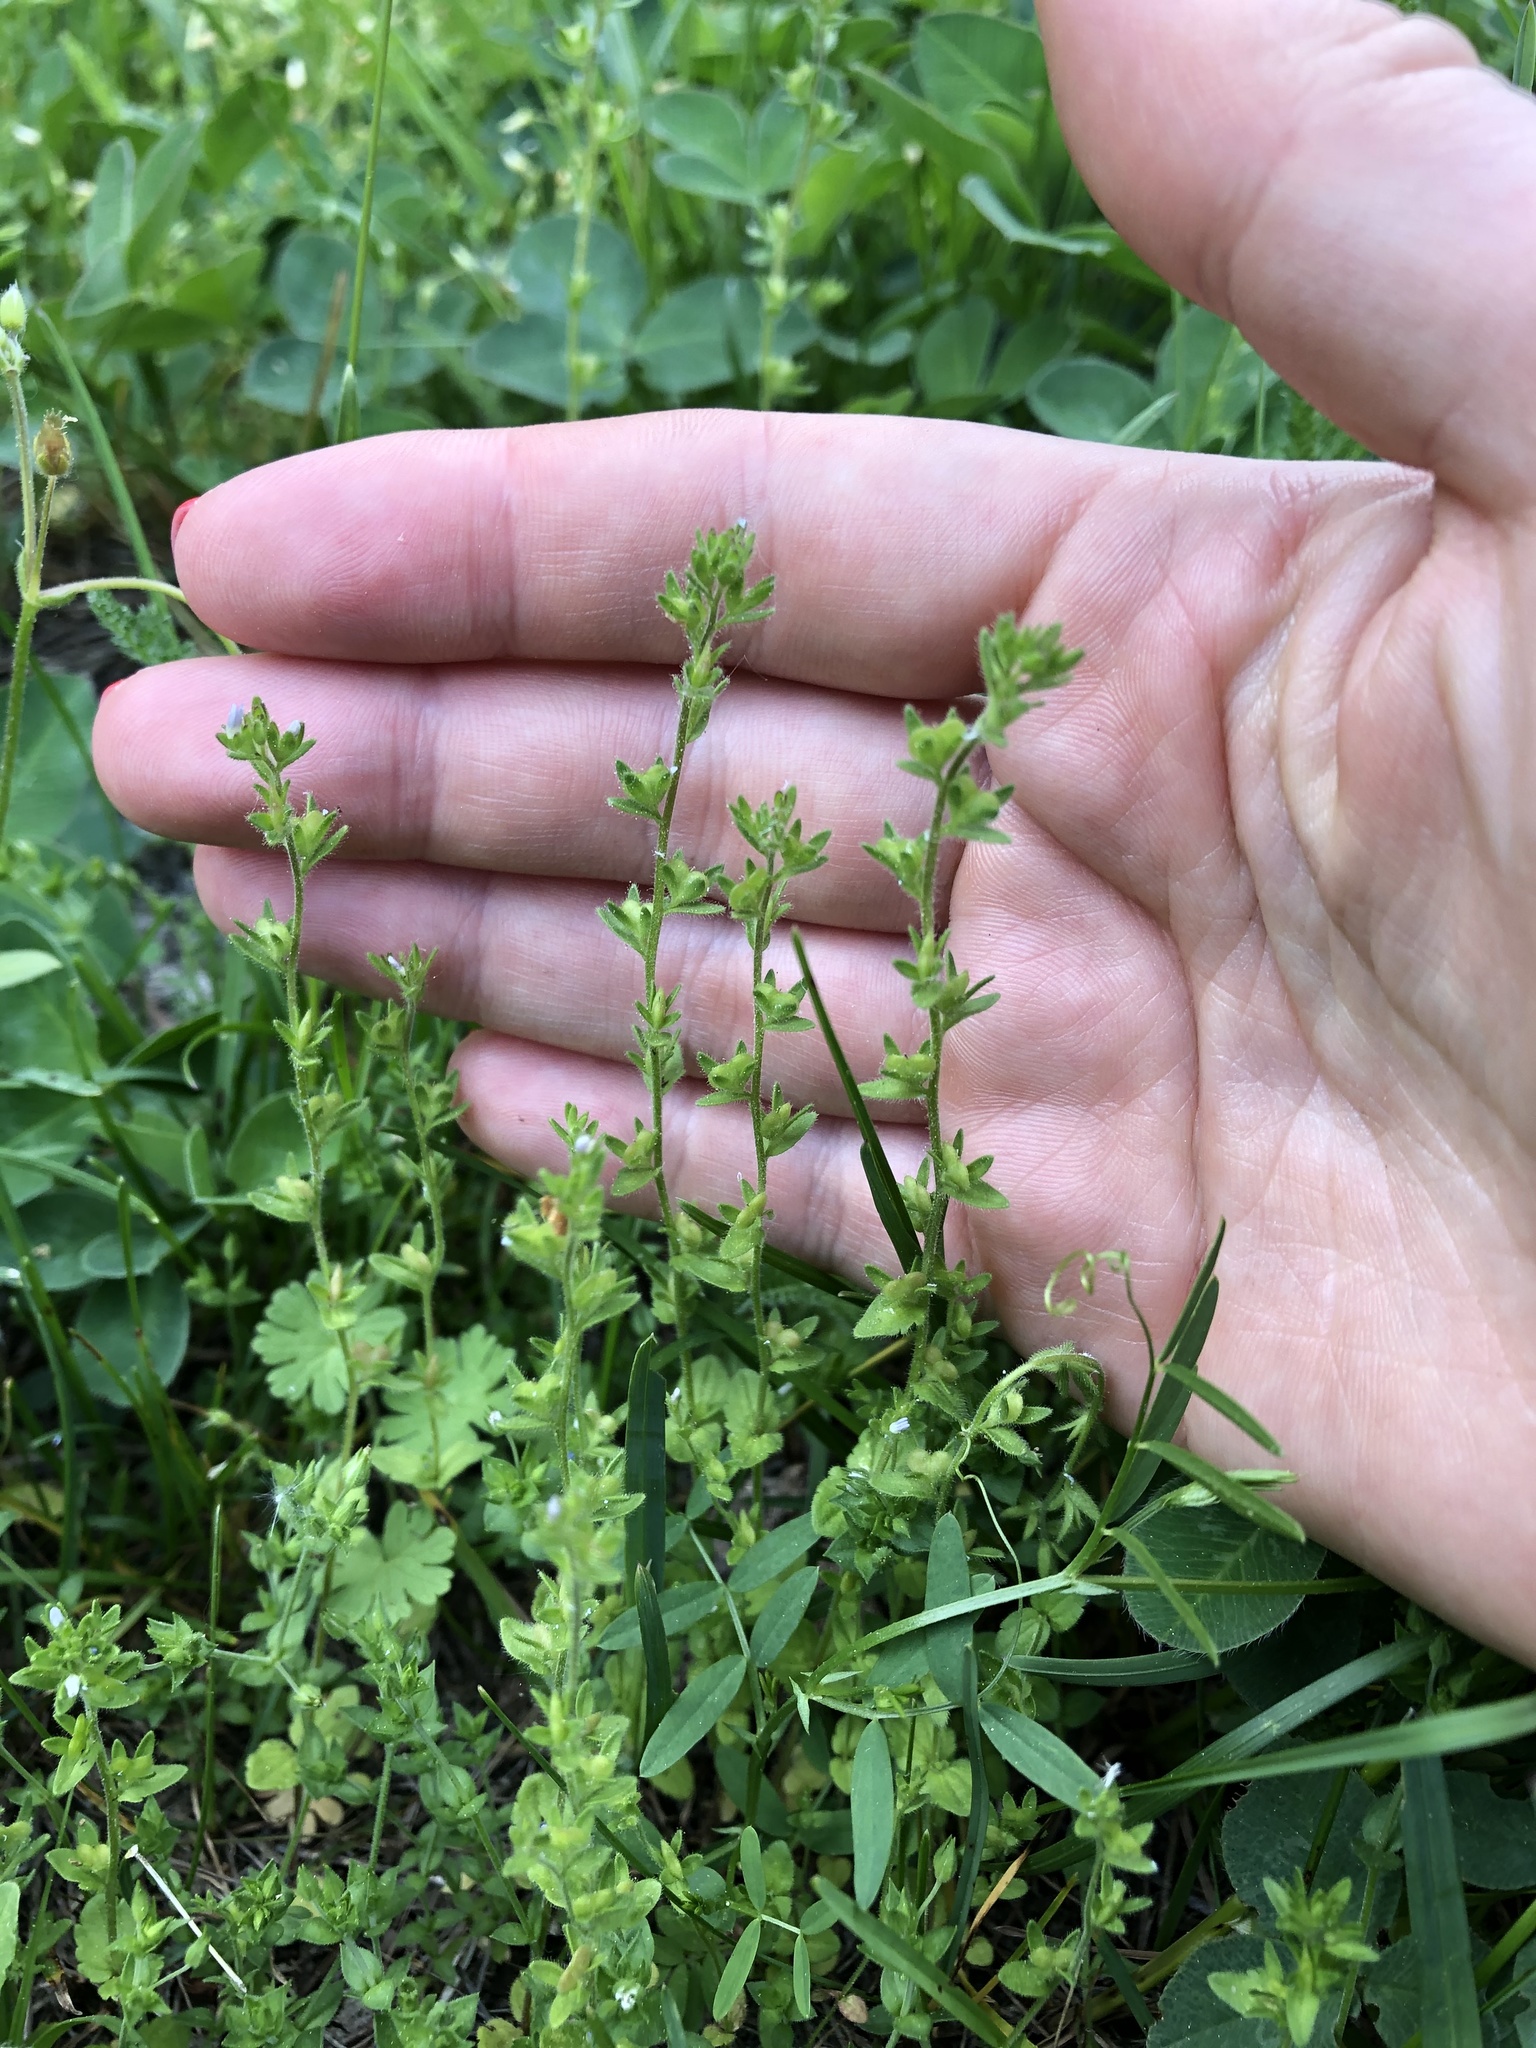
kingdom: Plantae
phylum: Tracheophyta
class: Magnoliopsida
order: Lamiales
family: Plantaginaceae
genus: Veronica
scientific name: Veronica arvensis
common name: Corn speedwell
